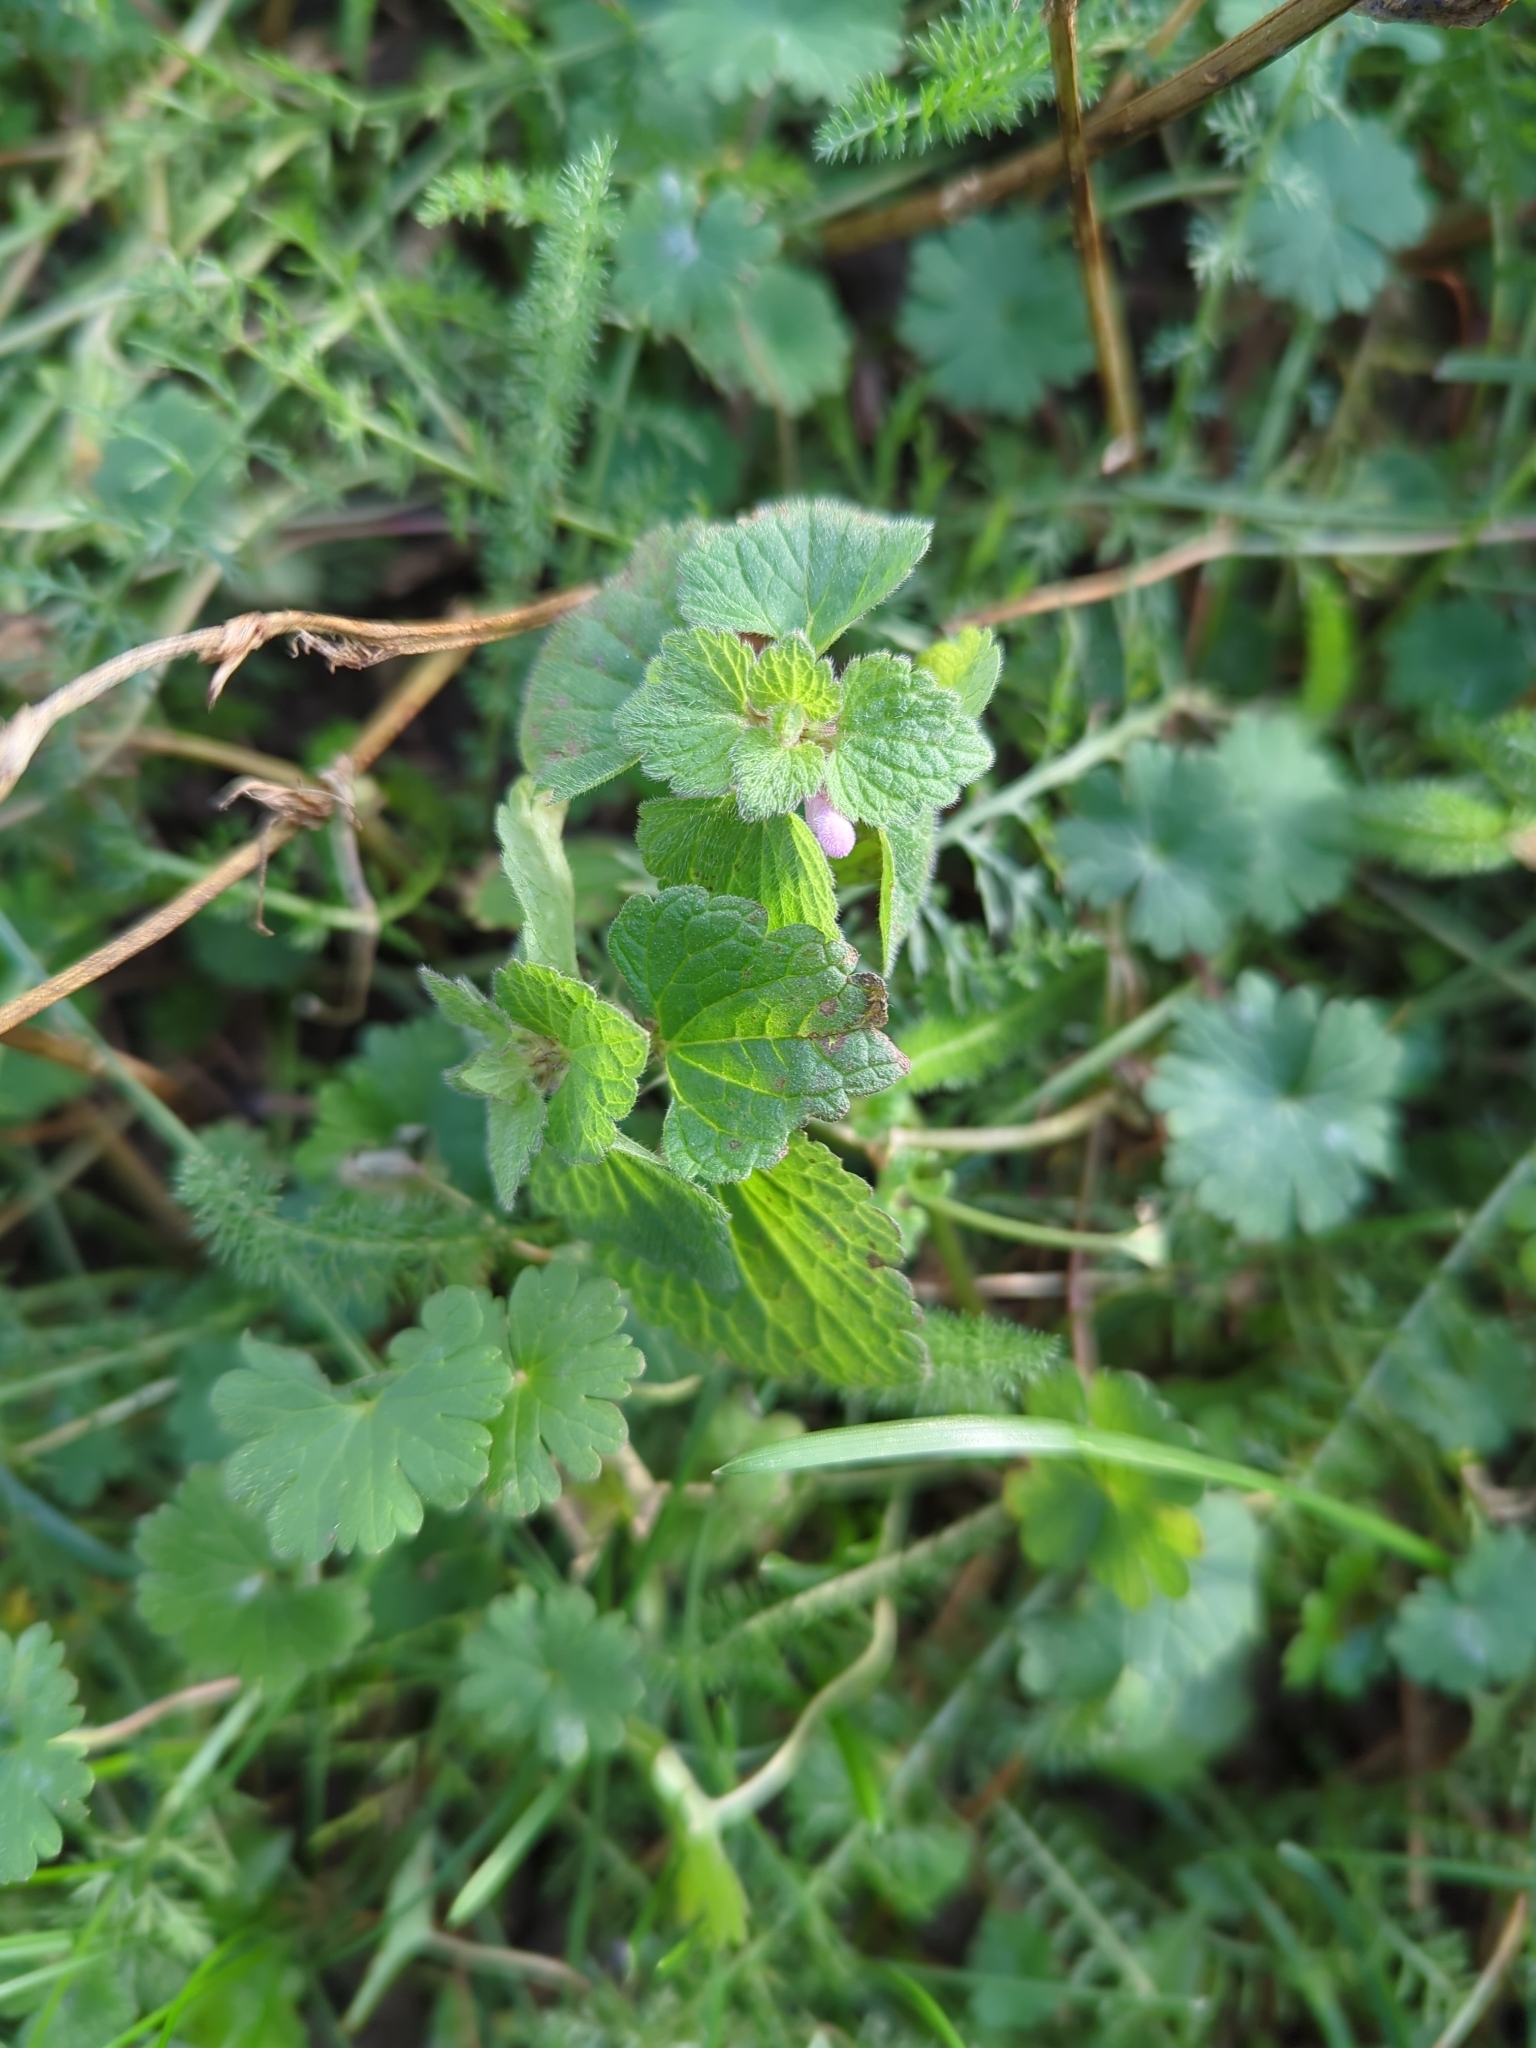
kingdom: Plantae
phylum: Tracheophyta
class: Magnoliopsida
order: Lamiales
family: Lamiaceae
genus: Lamium
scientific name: Lamium purpureum
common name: Red dead-nettle
